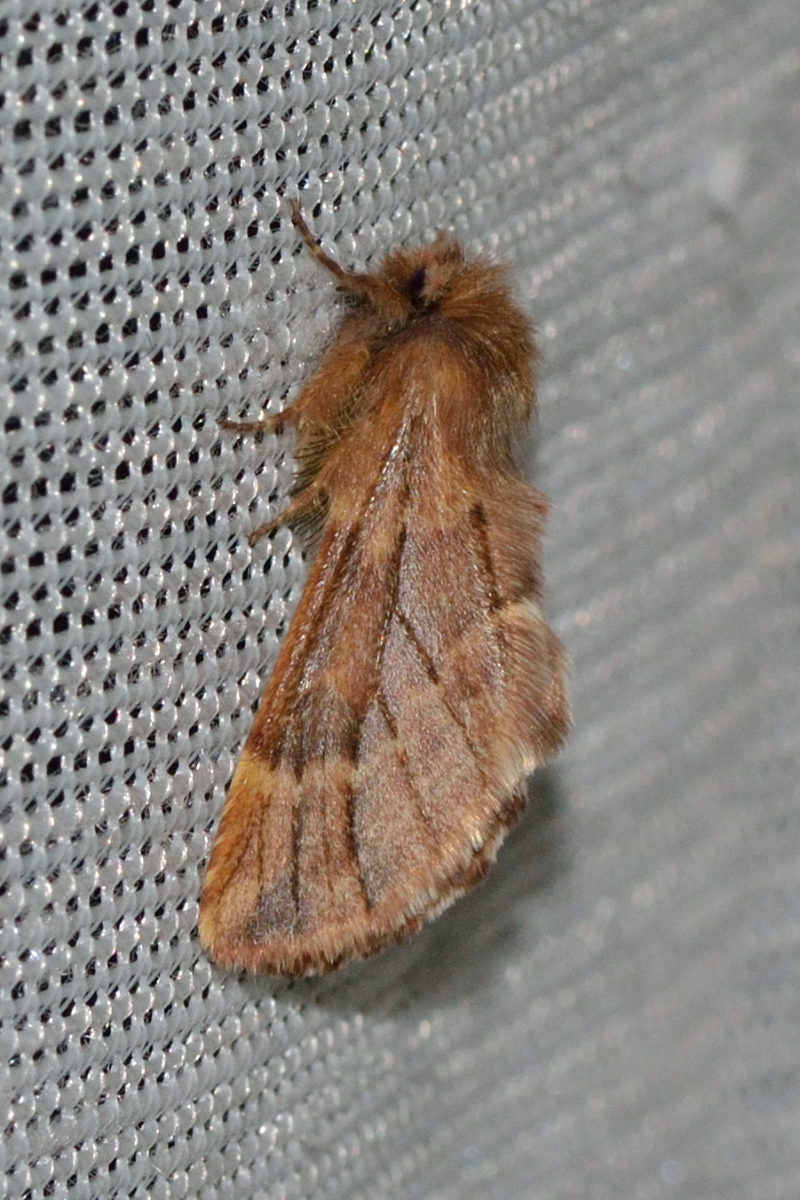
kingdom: Animalia
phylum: Arthropoda
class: Insecta
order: Lepidoptera
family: Notodontidae
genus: Ptilophora
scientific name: Ptilophora plumigera
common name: Plumed prominent
